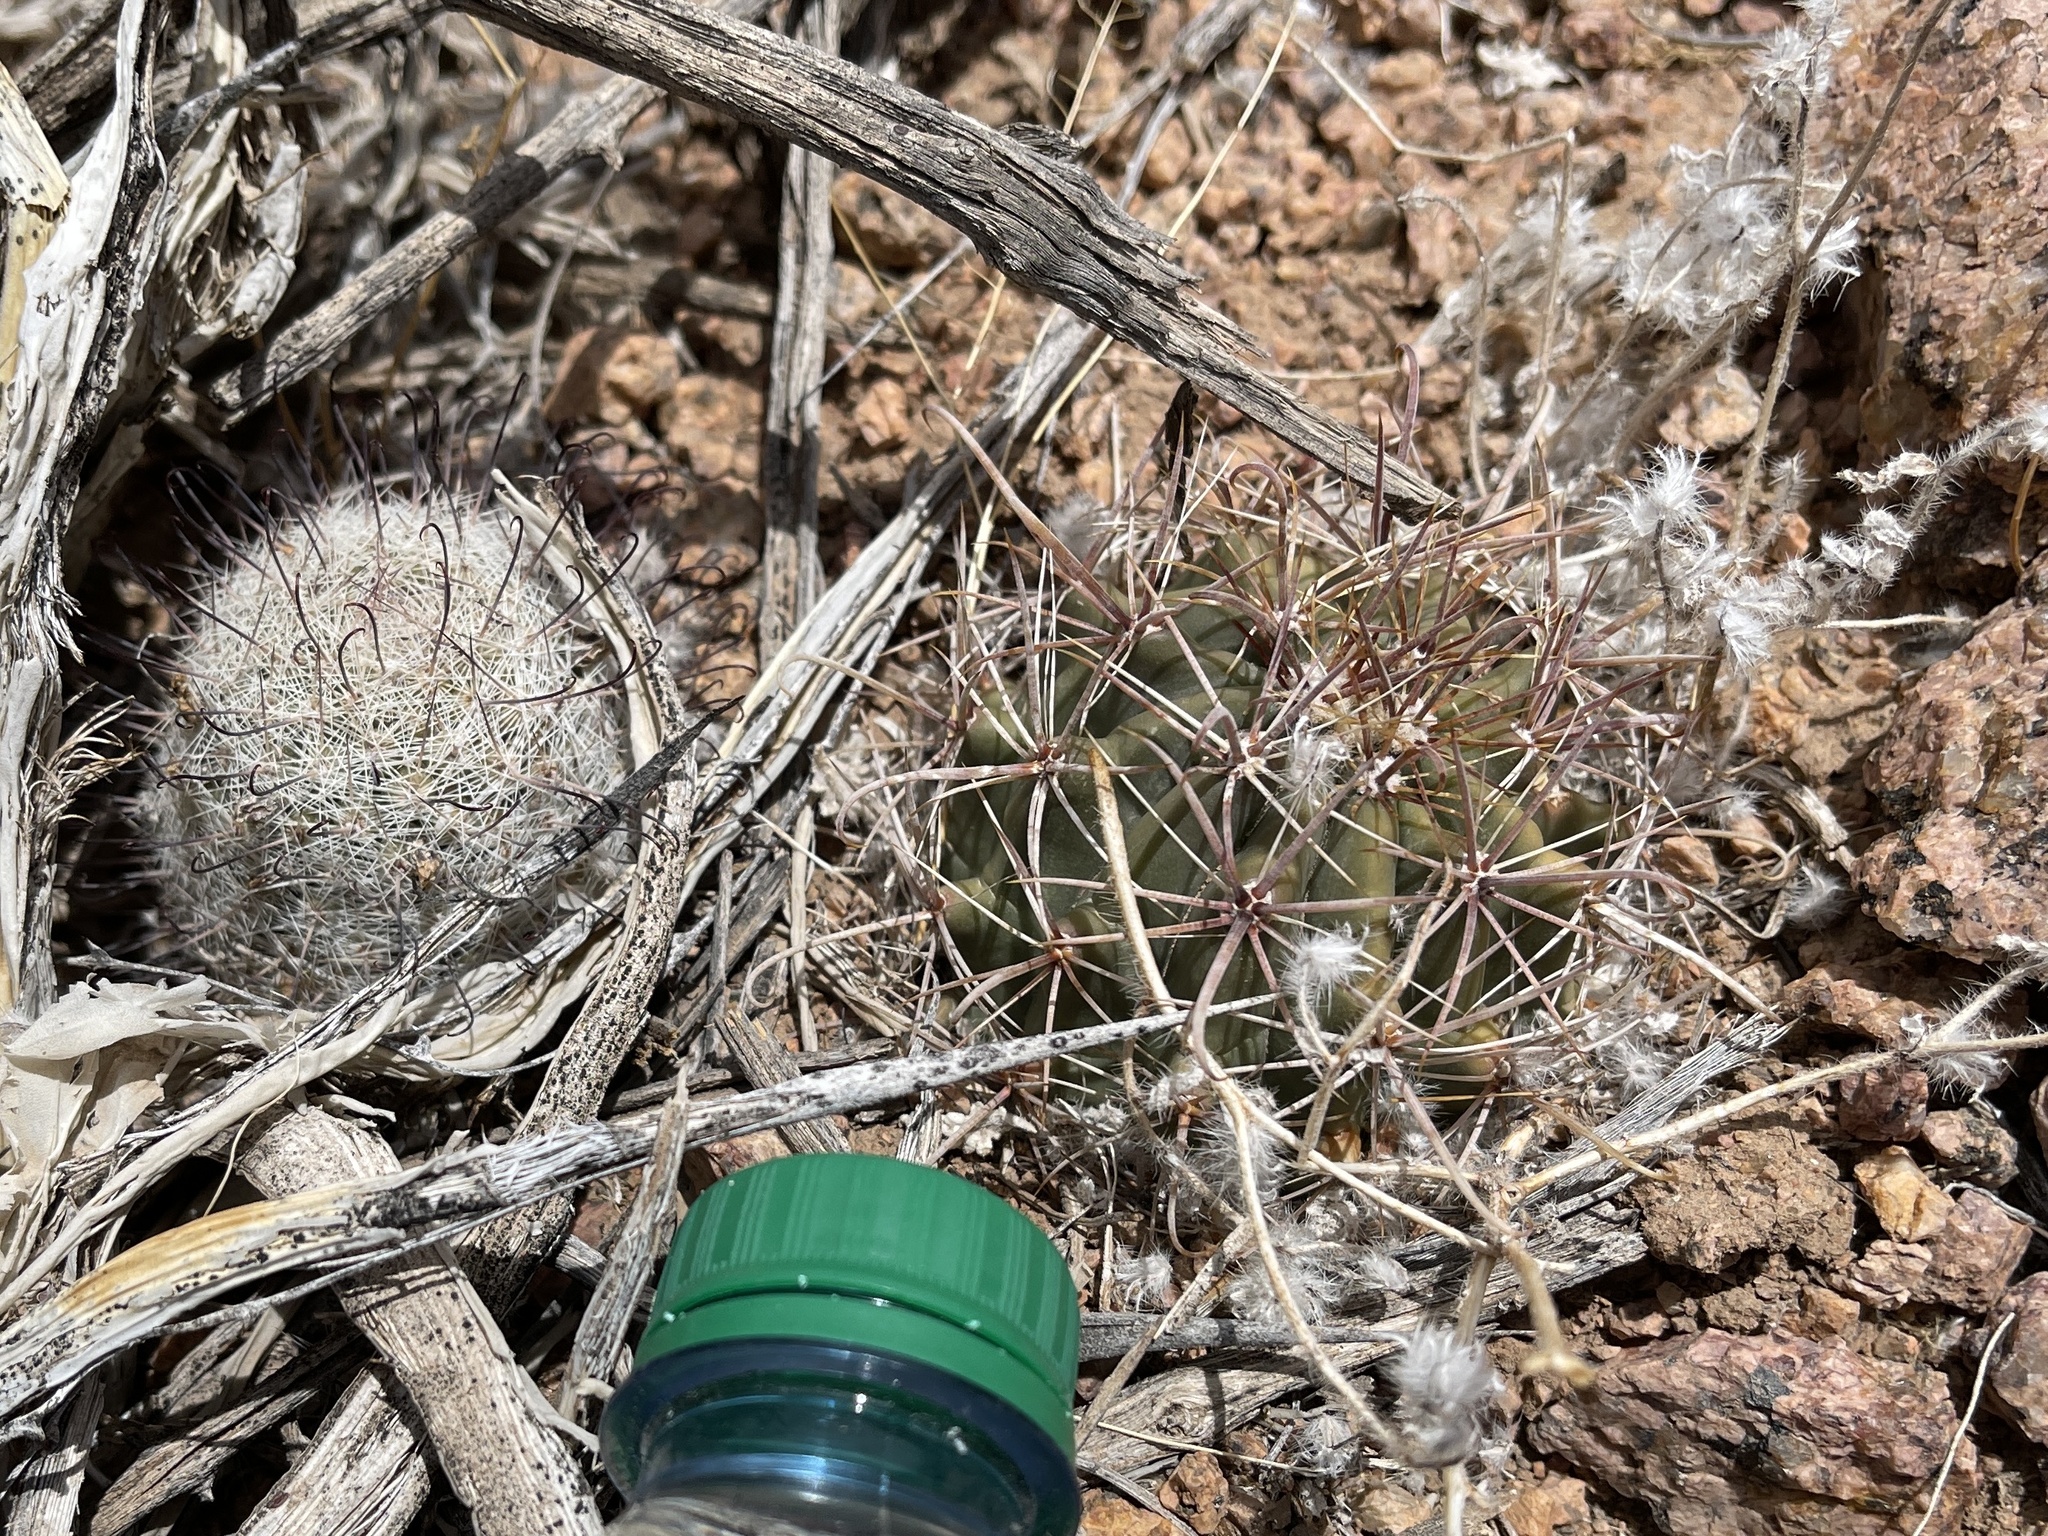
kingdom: Plantae
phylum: Tracheophyta
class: Magnoliopsida
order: Caryophyllales
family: Cactaceae
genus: Cochemiea
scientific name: Cochemiea grahamii
